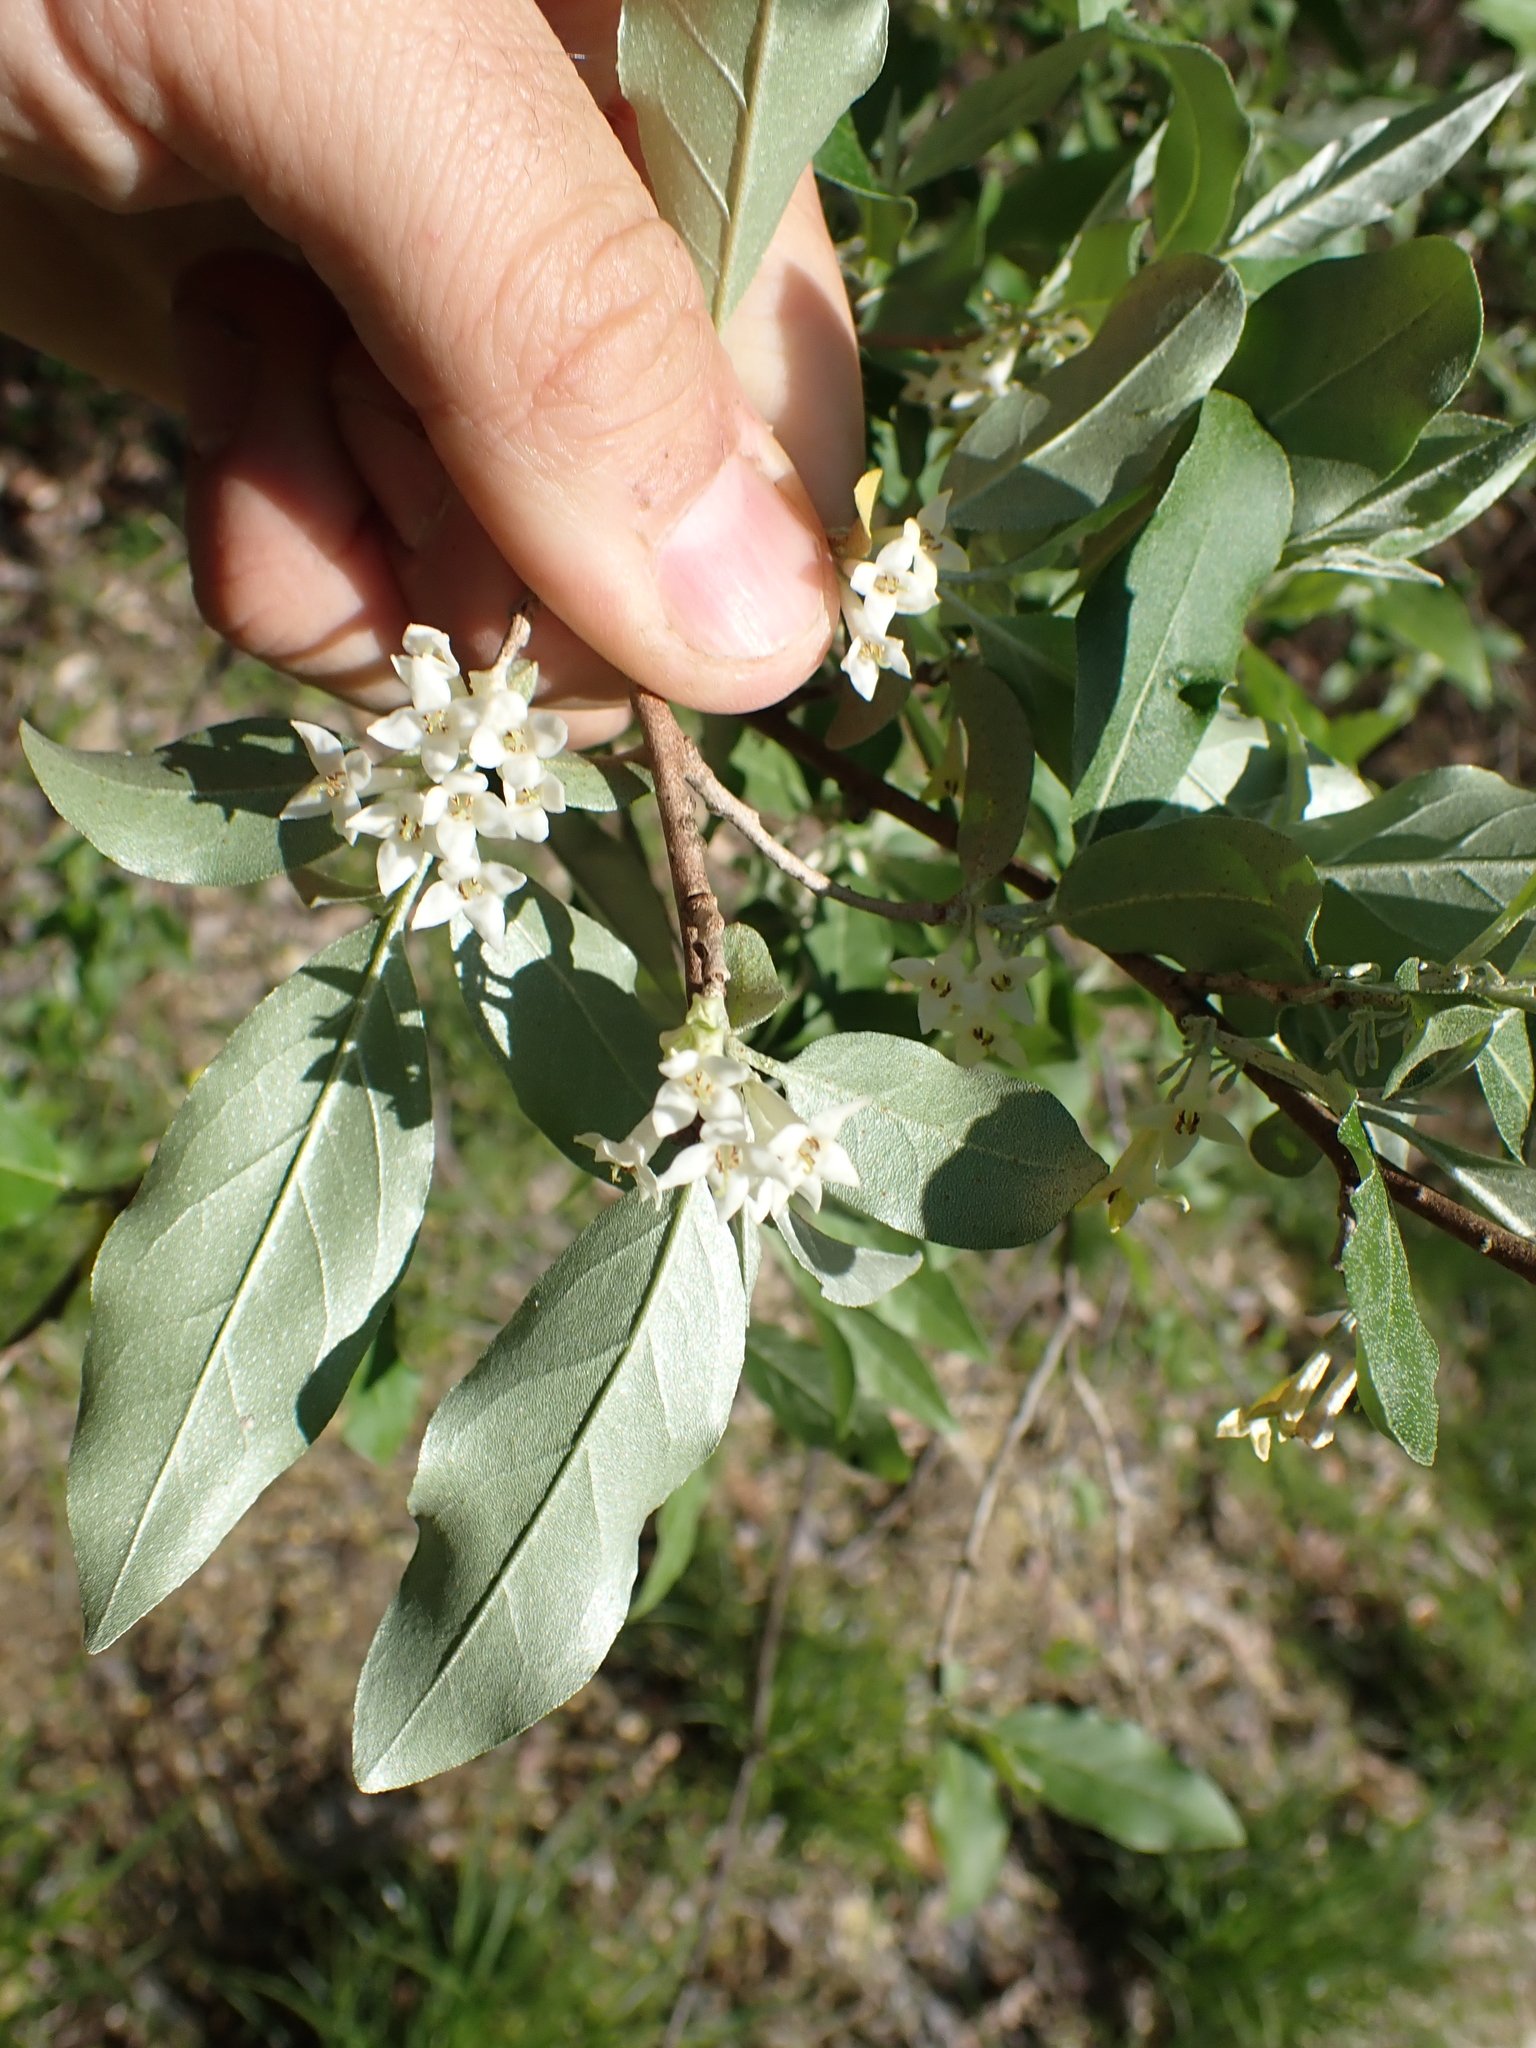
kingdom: Plantae
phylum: Tracheophyta
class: Magnoliopsida
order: Rosales
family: Elaeagnaceae
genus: Elaeagnus
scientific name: Elaeagnus umbellata
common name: Autumn olive
